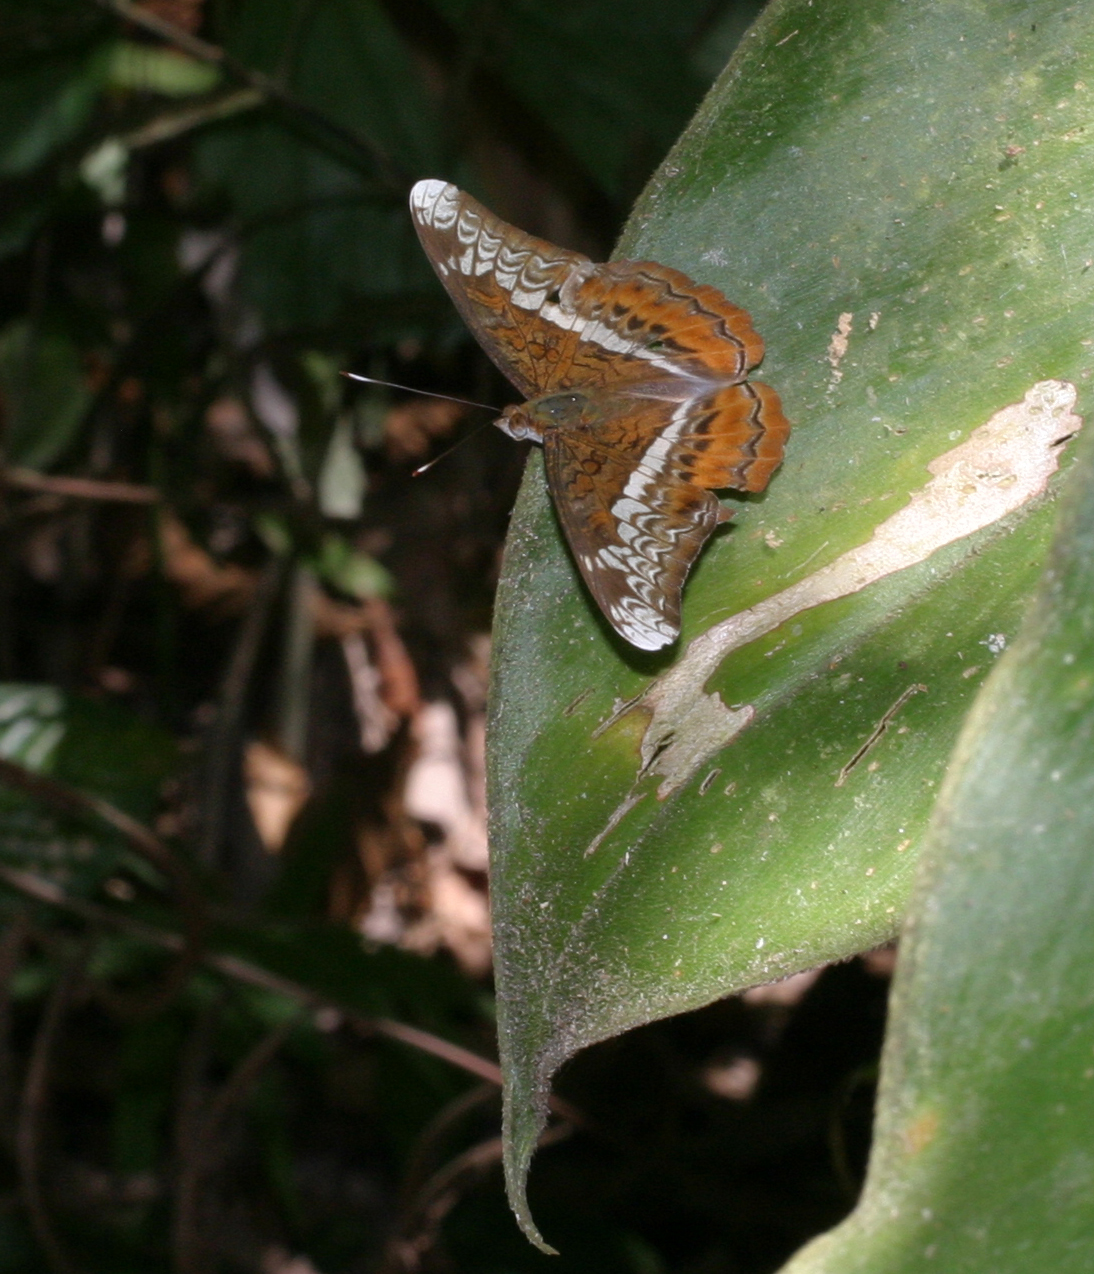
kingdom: Animalia
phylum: Arthropoda
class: Insecta
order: Lepidoptera
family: Nymphalidae
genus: Lebadea
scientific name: Lebadea martha
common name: Knight
